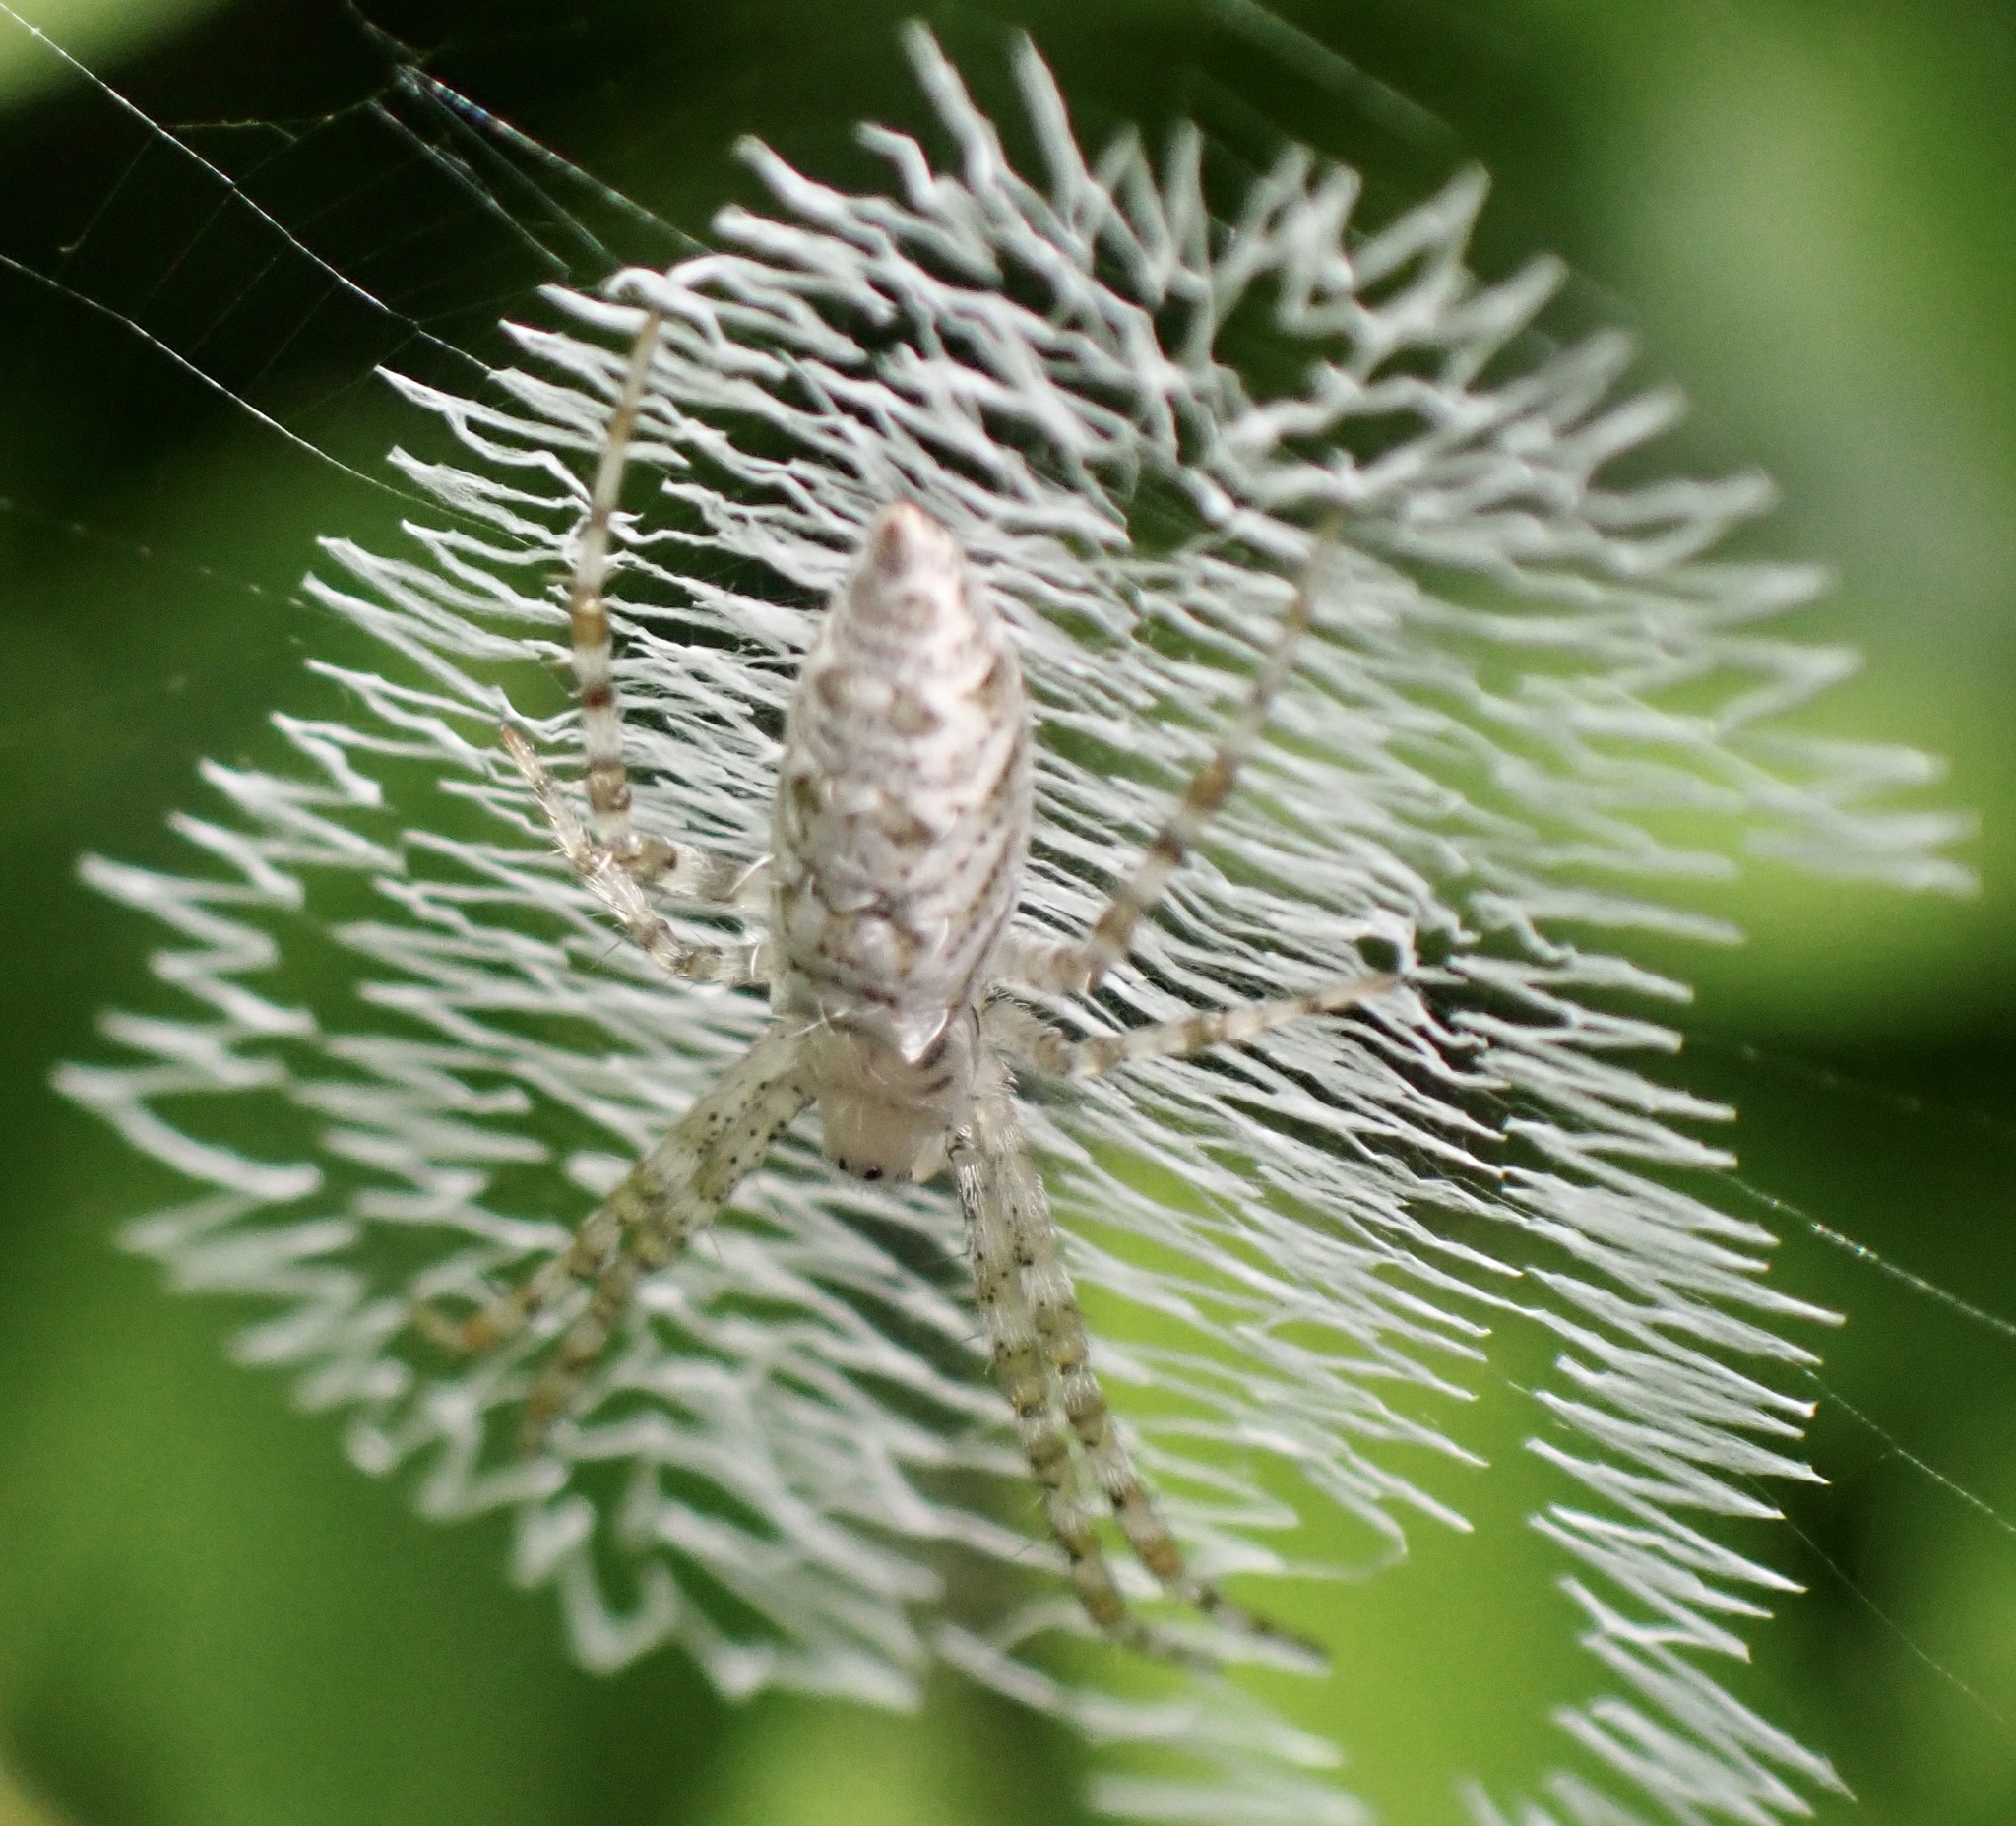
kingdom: Animalia
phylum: Arthropoda
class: Arachnida
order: Araneae
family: Araneidae
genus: Argiope
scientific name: Argiope aurantia
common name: Orb weavers
